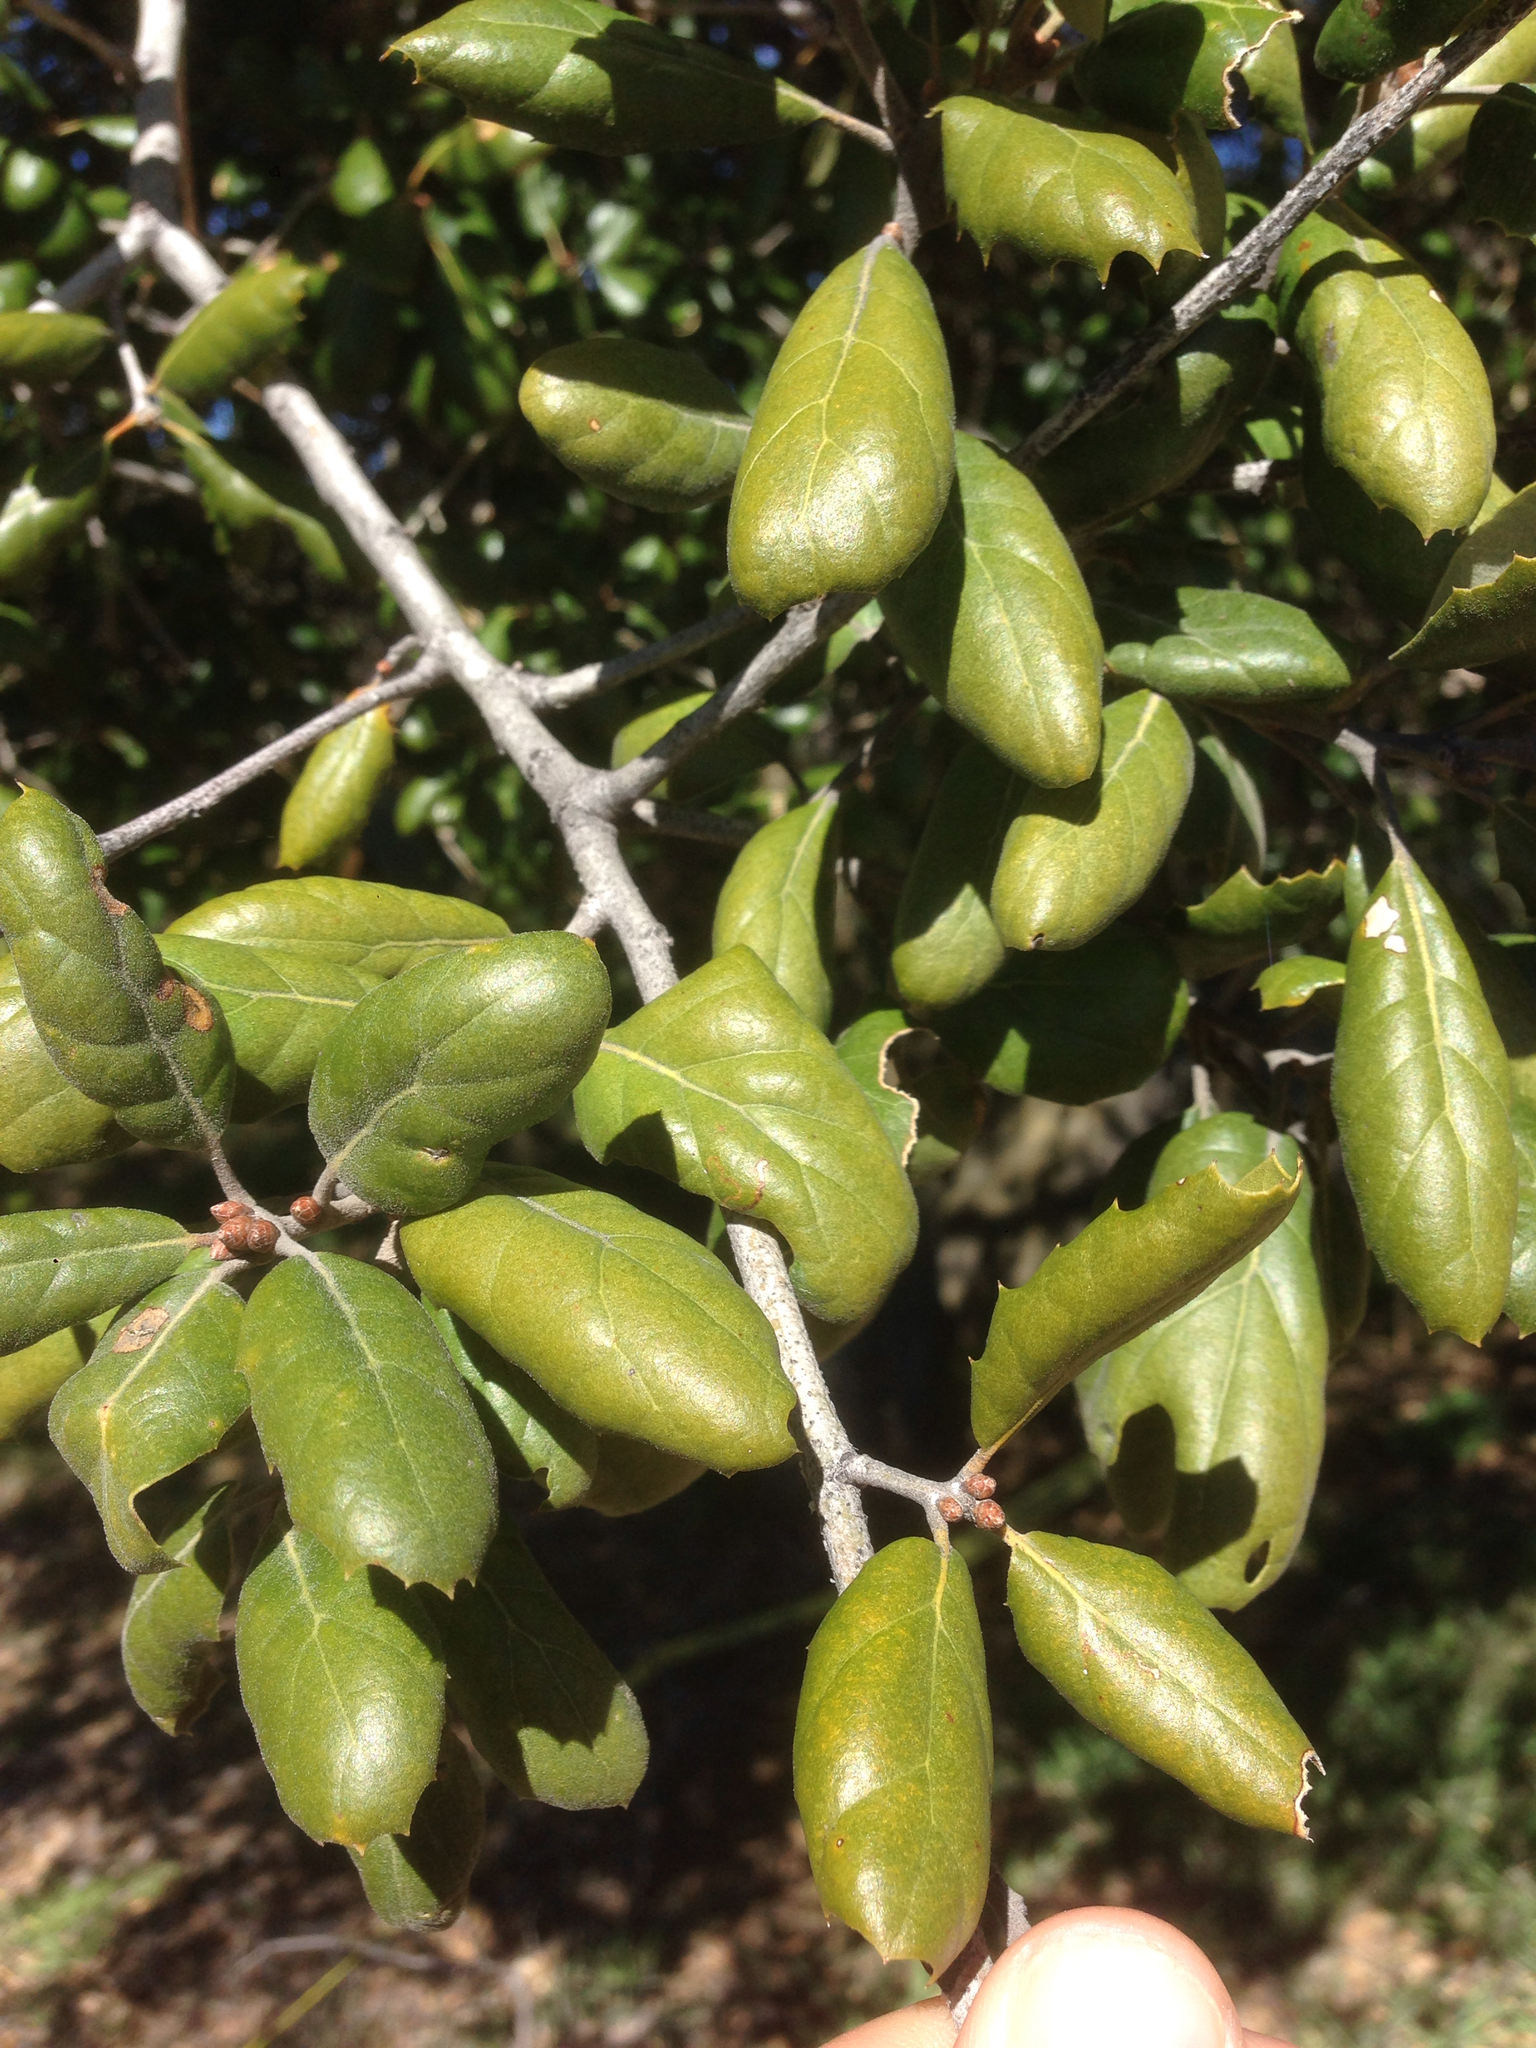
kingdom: Plantae
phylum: Tracheophyta
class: Magnoliopsida
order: Fagales
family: Fagaceae
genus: Quercus
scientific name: Quercus agrifolia
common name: California live oak
